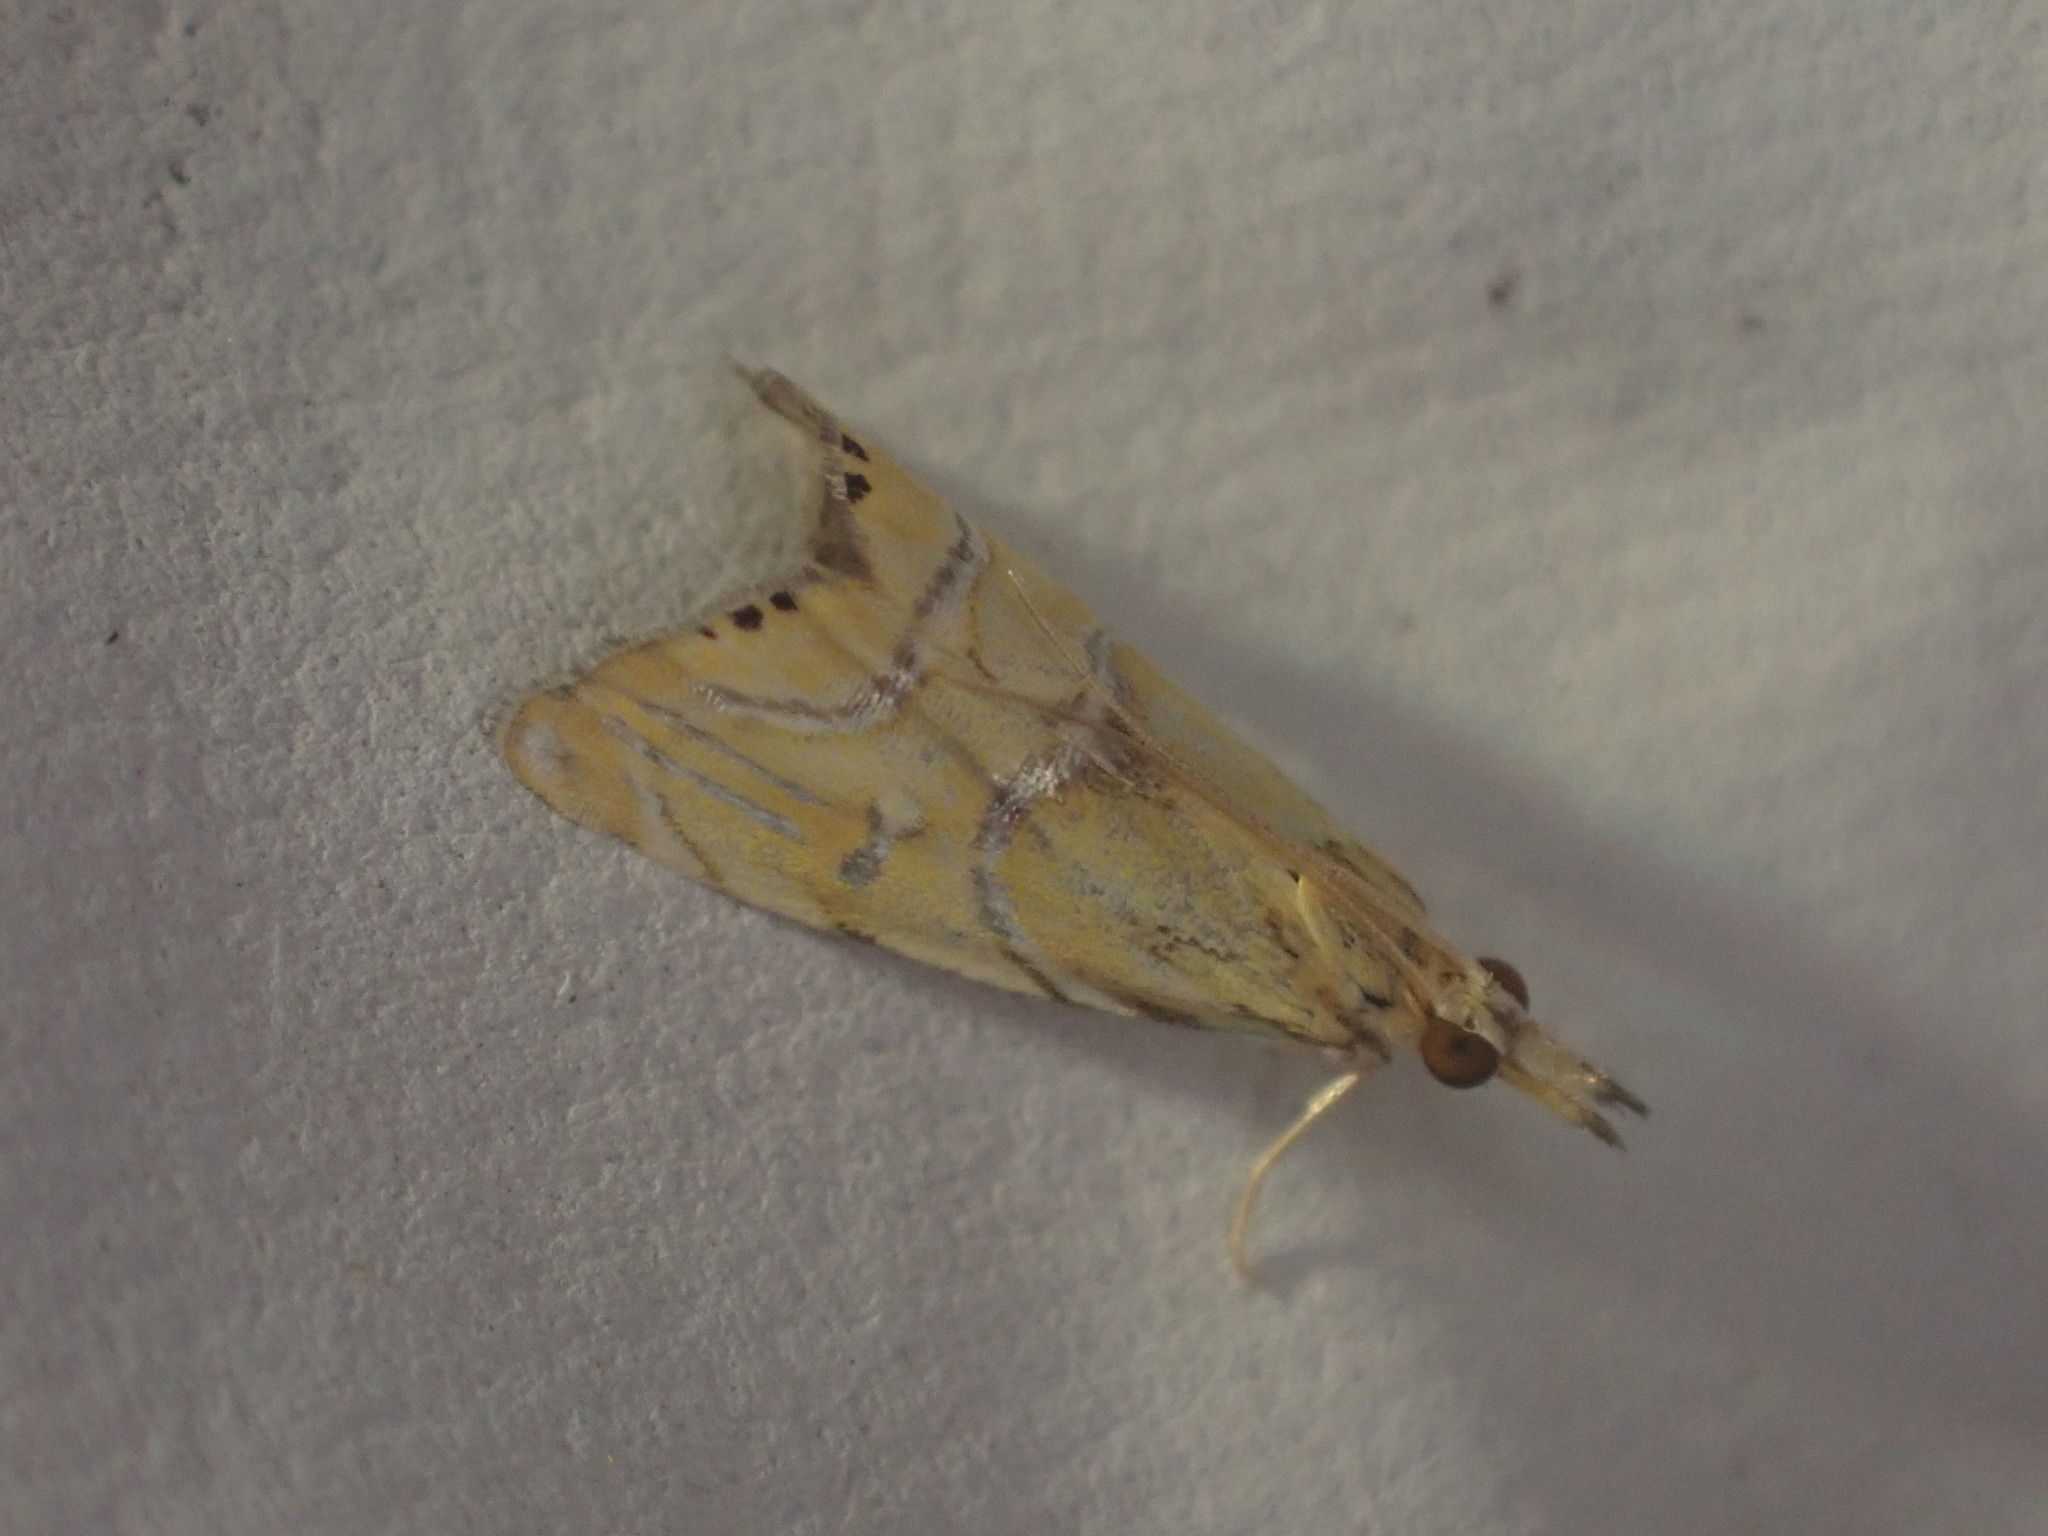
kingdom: Animalia
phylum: Arthropoda
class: Insecta
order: Lepidoptera
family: Crambidae
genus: Glaucocharis
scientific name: Glaucocharis auriscriptella
